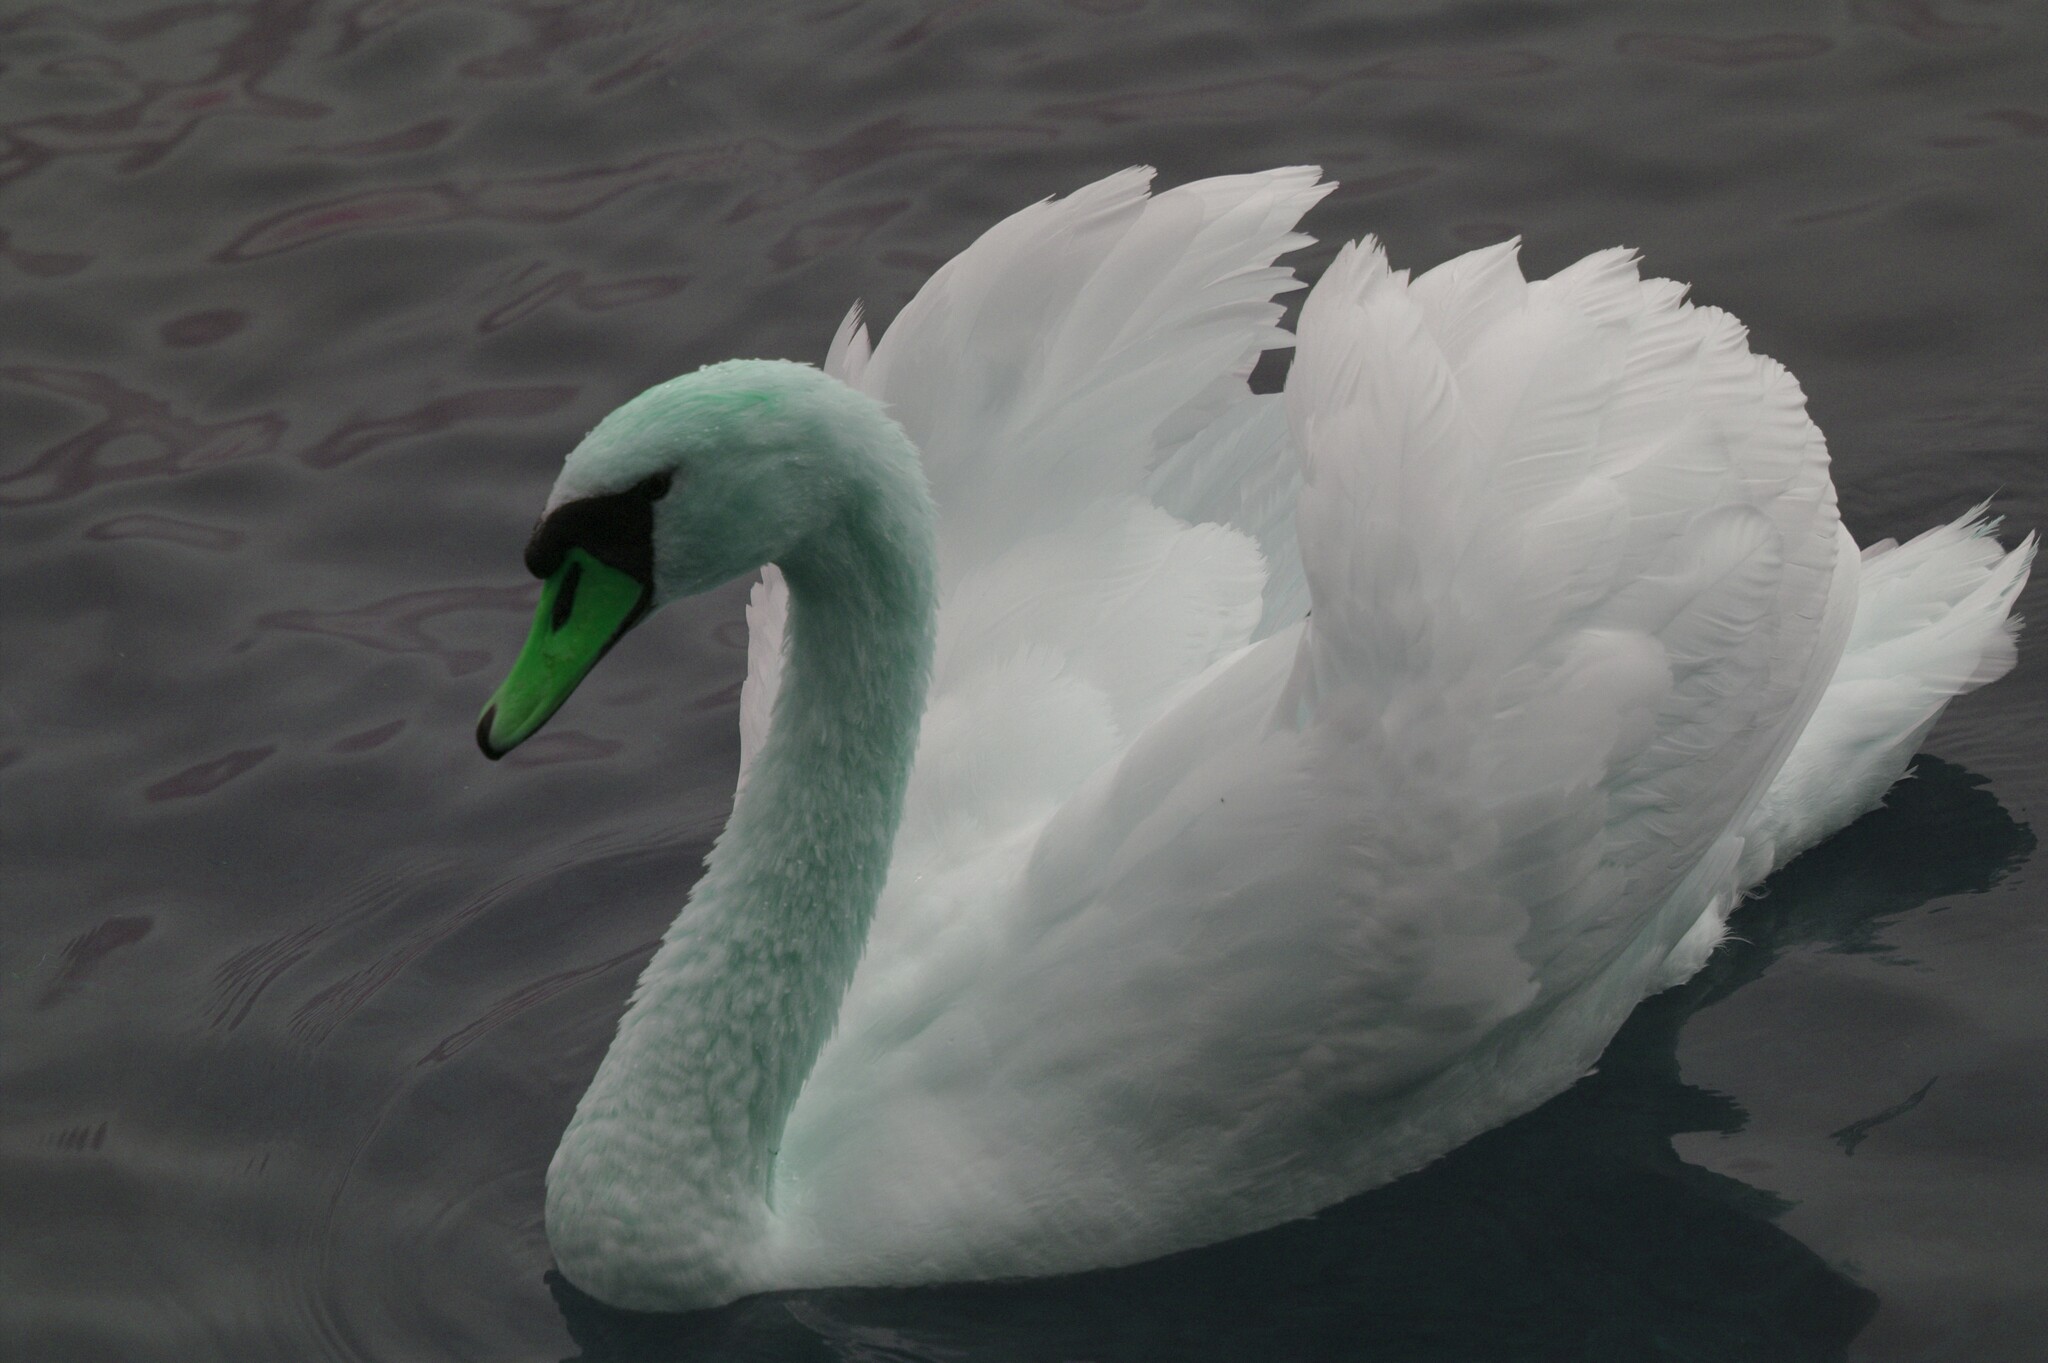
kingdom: Animalia
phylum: Chordata
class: Aves
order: Anseriformes
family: Anatidae
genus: Cygnus
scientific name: Cygnus olor
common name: Mute swan
